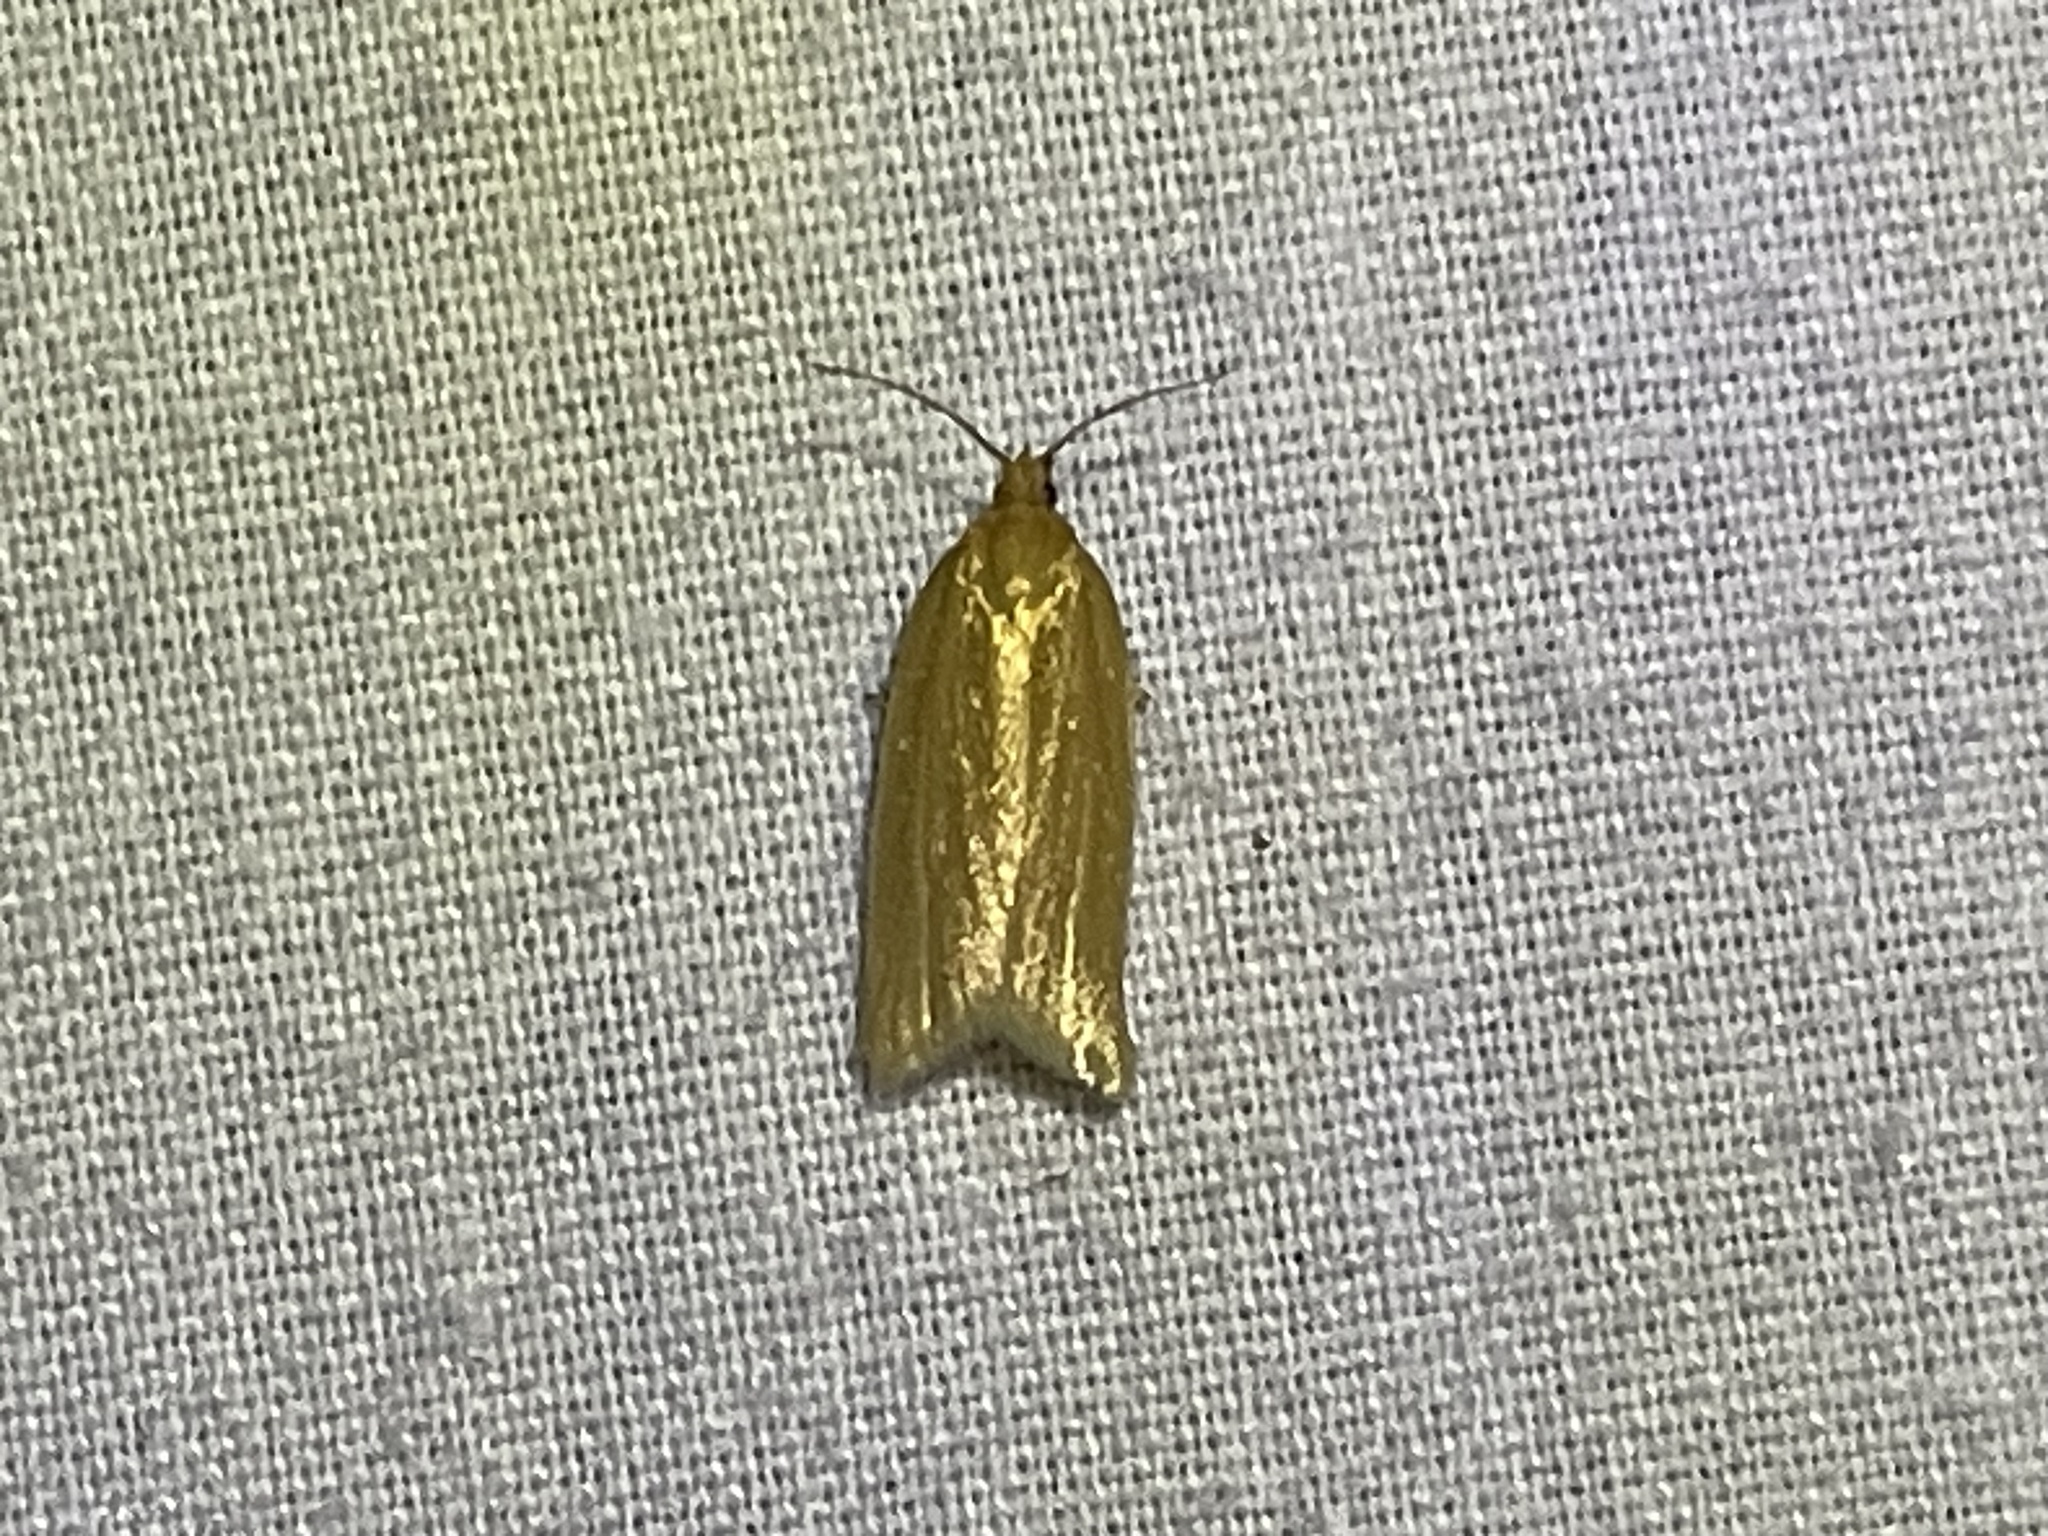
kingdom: Animalia
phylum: Arthropoda
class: Insecta
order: Lepidoptera
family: Tortricidae
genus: Clepsis
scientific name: Clepsis clemensiana
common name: Clemens' clepsis moth
